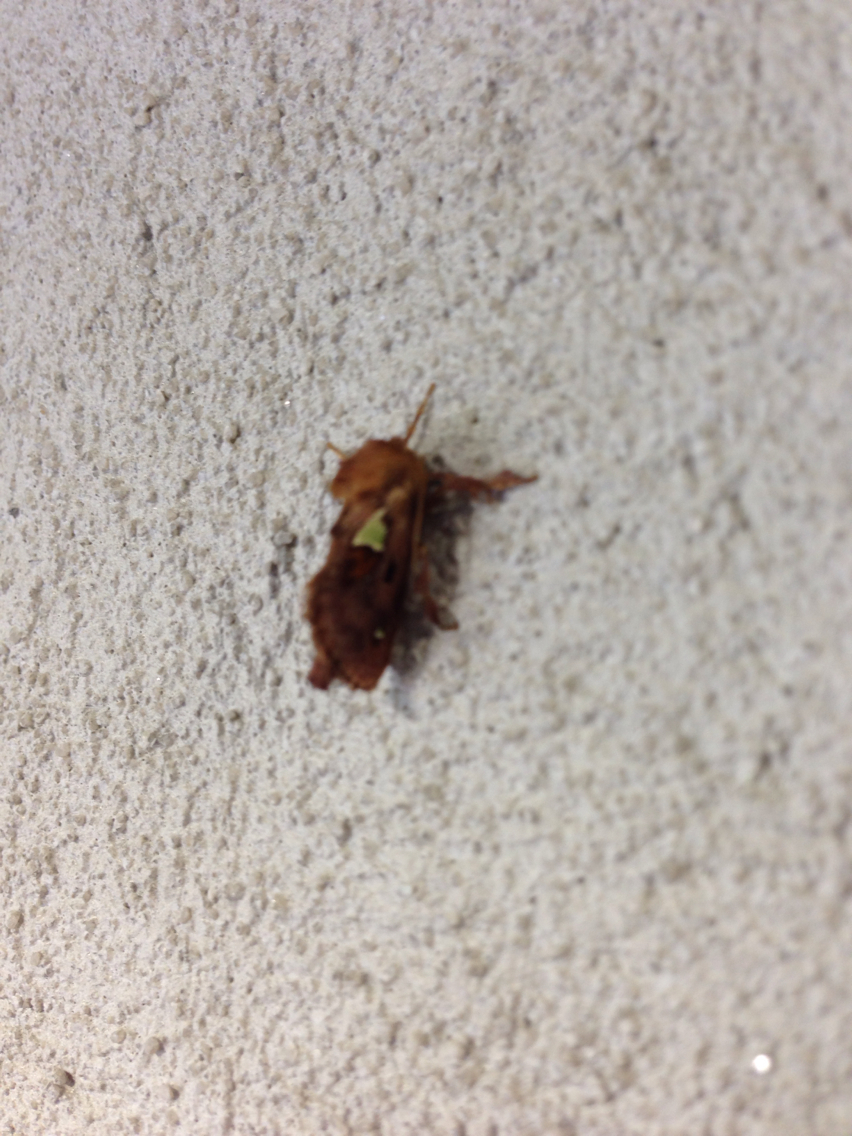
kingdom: Animalia
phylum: Arthropoda
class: Insecta
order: Lepidoptera
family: Limacodidae
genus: Euclea
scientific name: Euclea delphinii
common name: Spiny oak-slug moth
